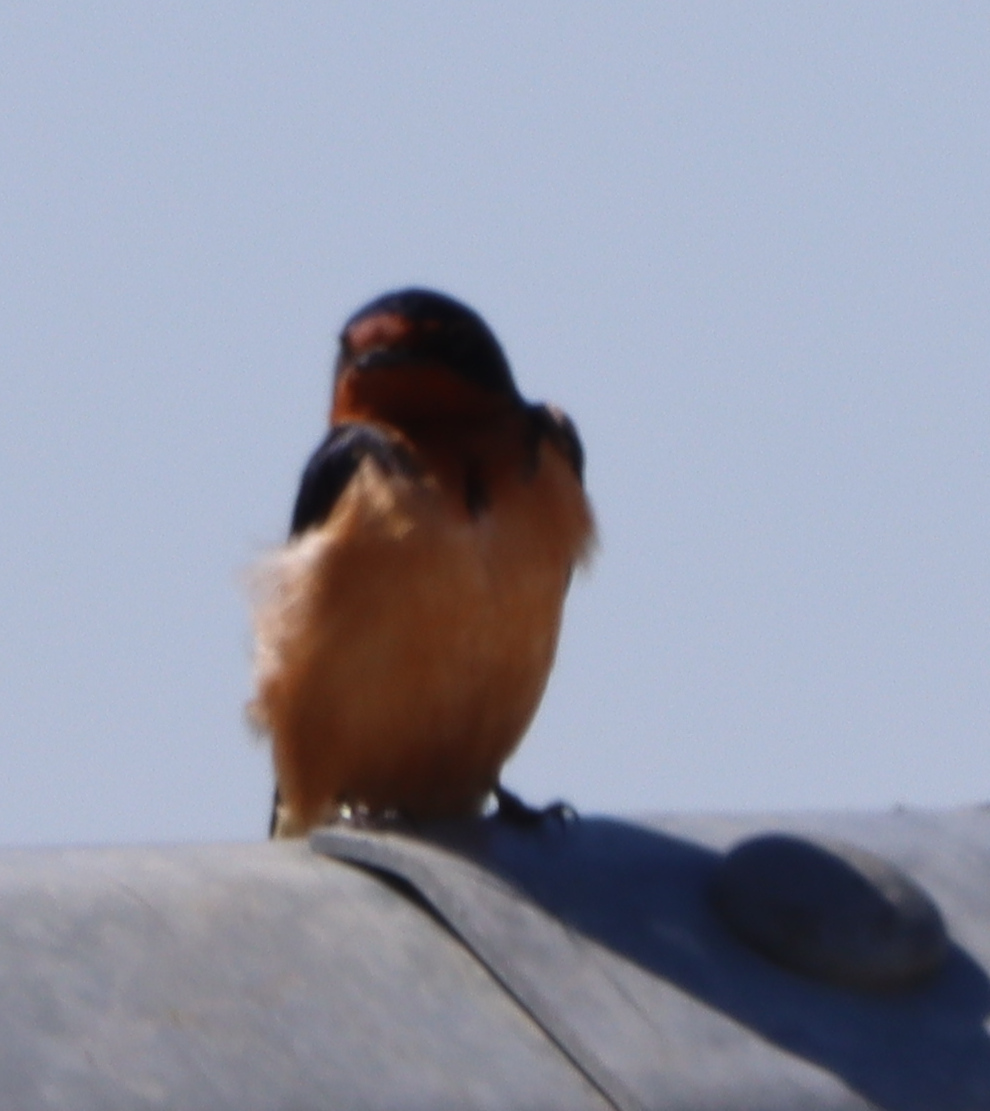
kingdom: Animalia
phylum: Chordata
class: Aves
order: Passeriformes
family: Hirundinidae
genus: Hirundo
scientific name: Hirundo rustica
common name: Barn swallow
